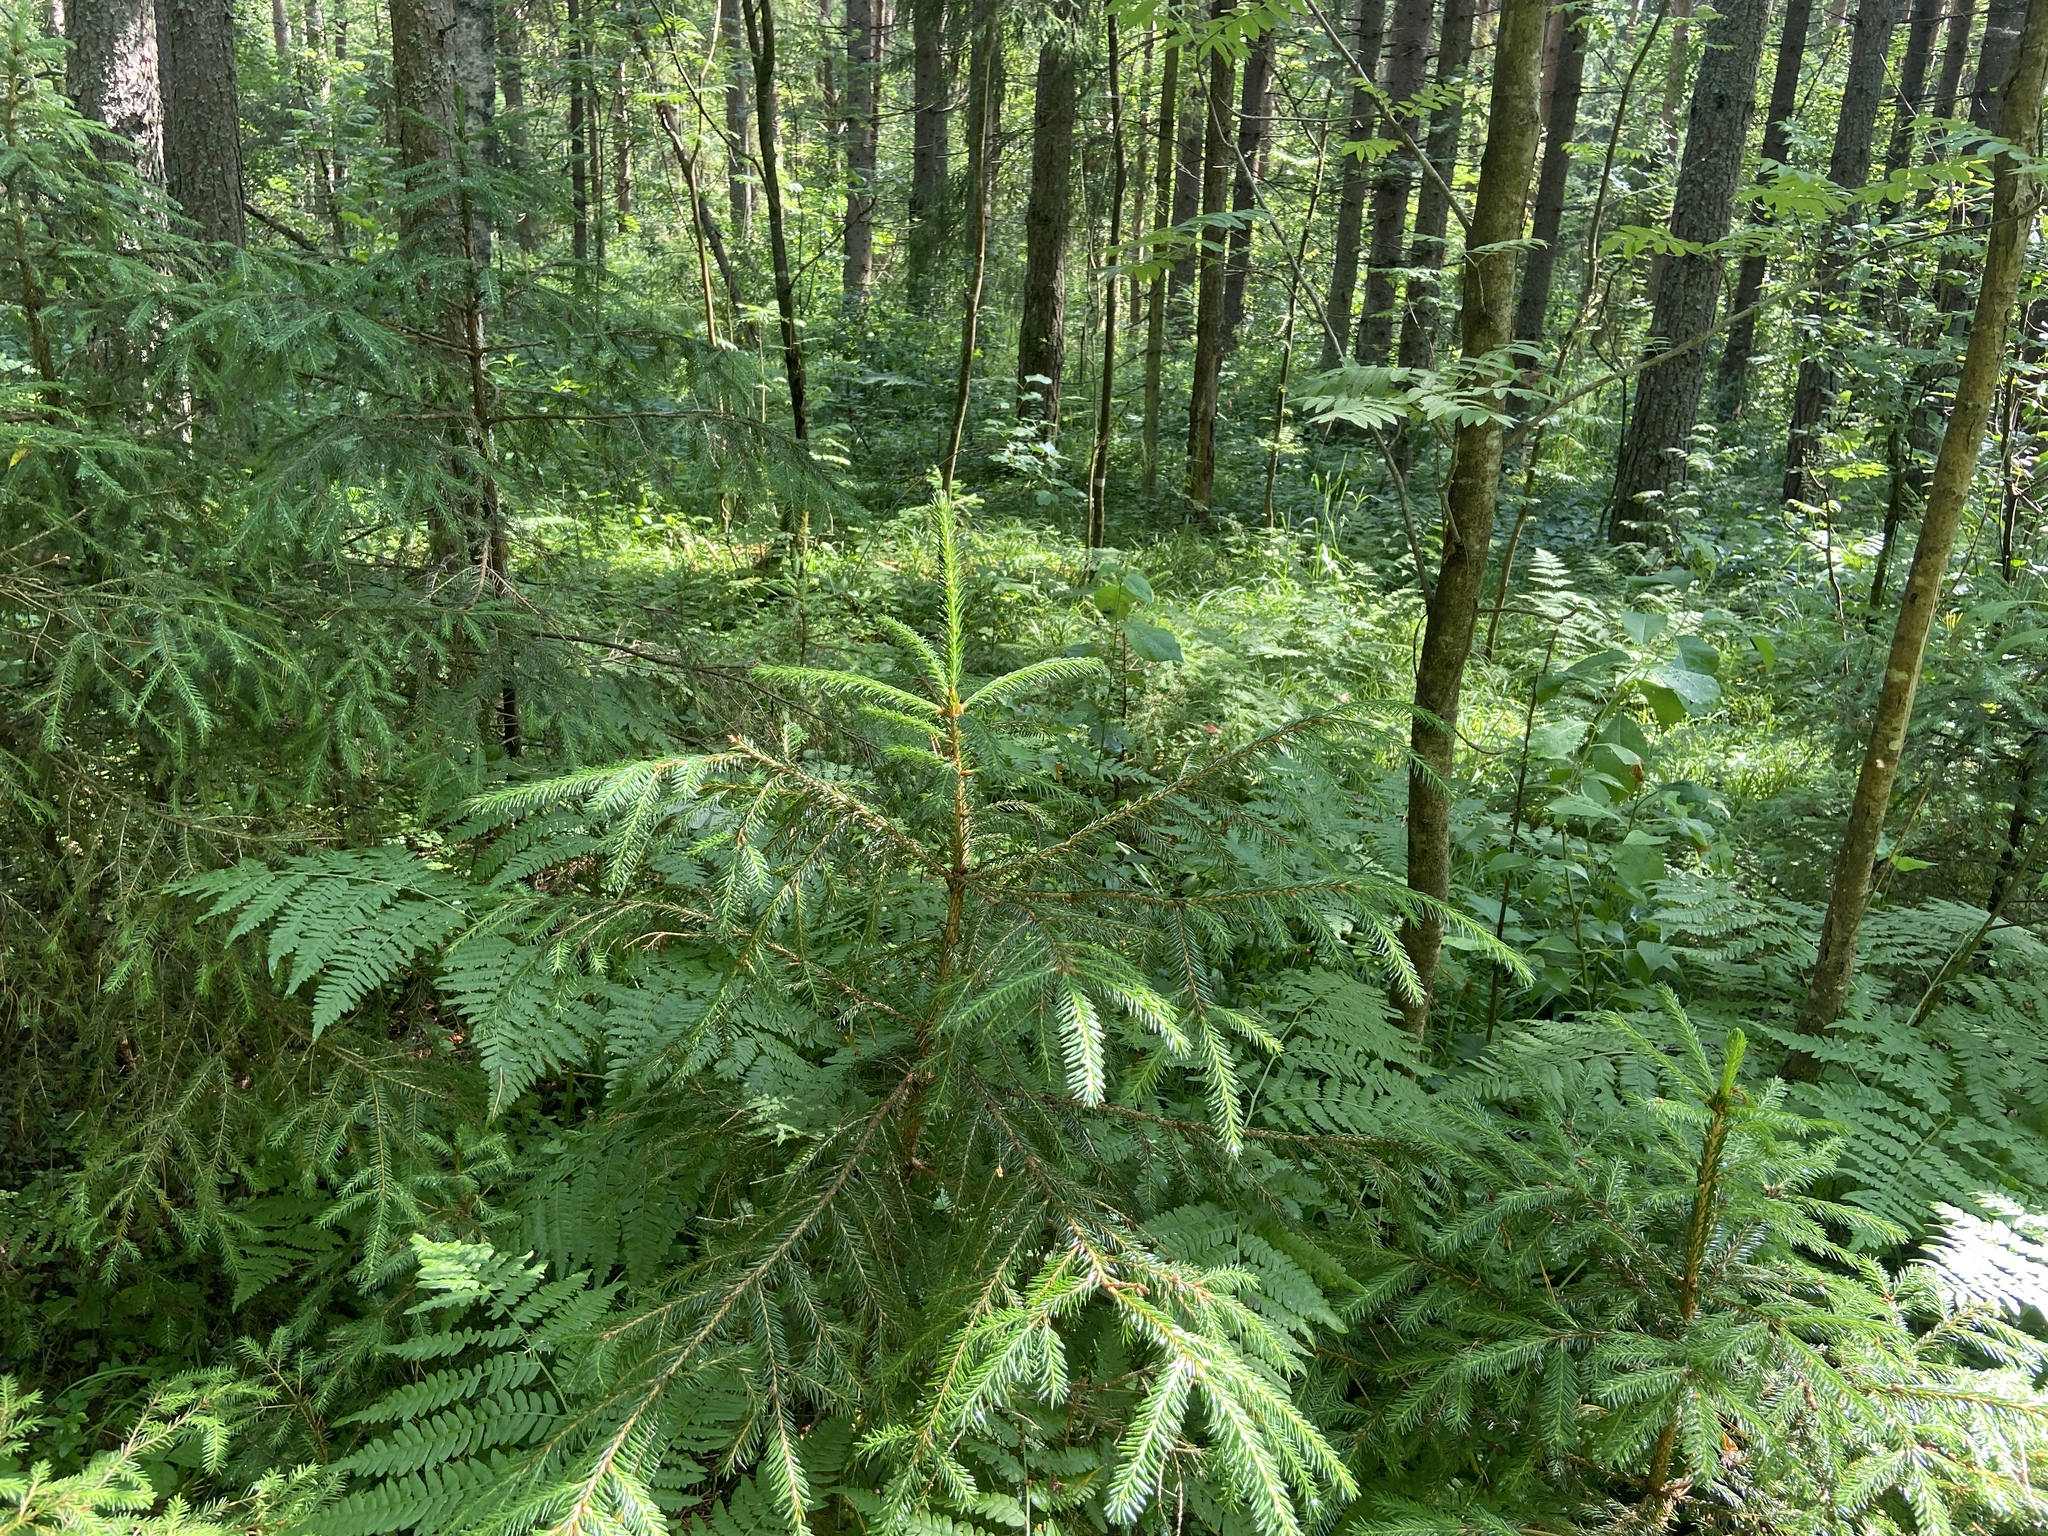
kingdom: Plantae
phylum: Tracheophyta
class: Pinopsida
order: Pinales
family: Pinaceae
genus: Picea
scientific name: Picea abies
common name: Norway spruce
